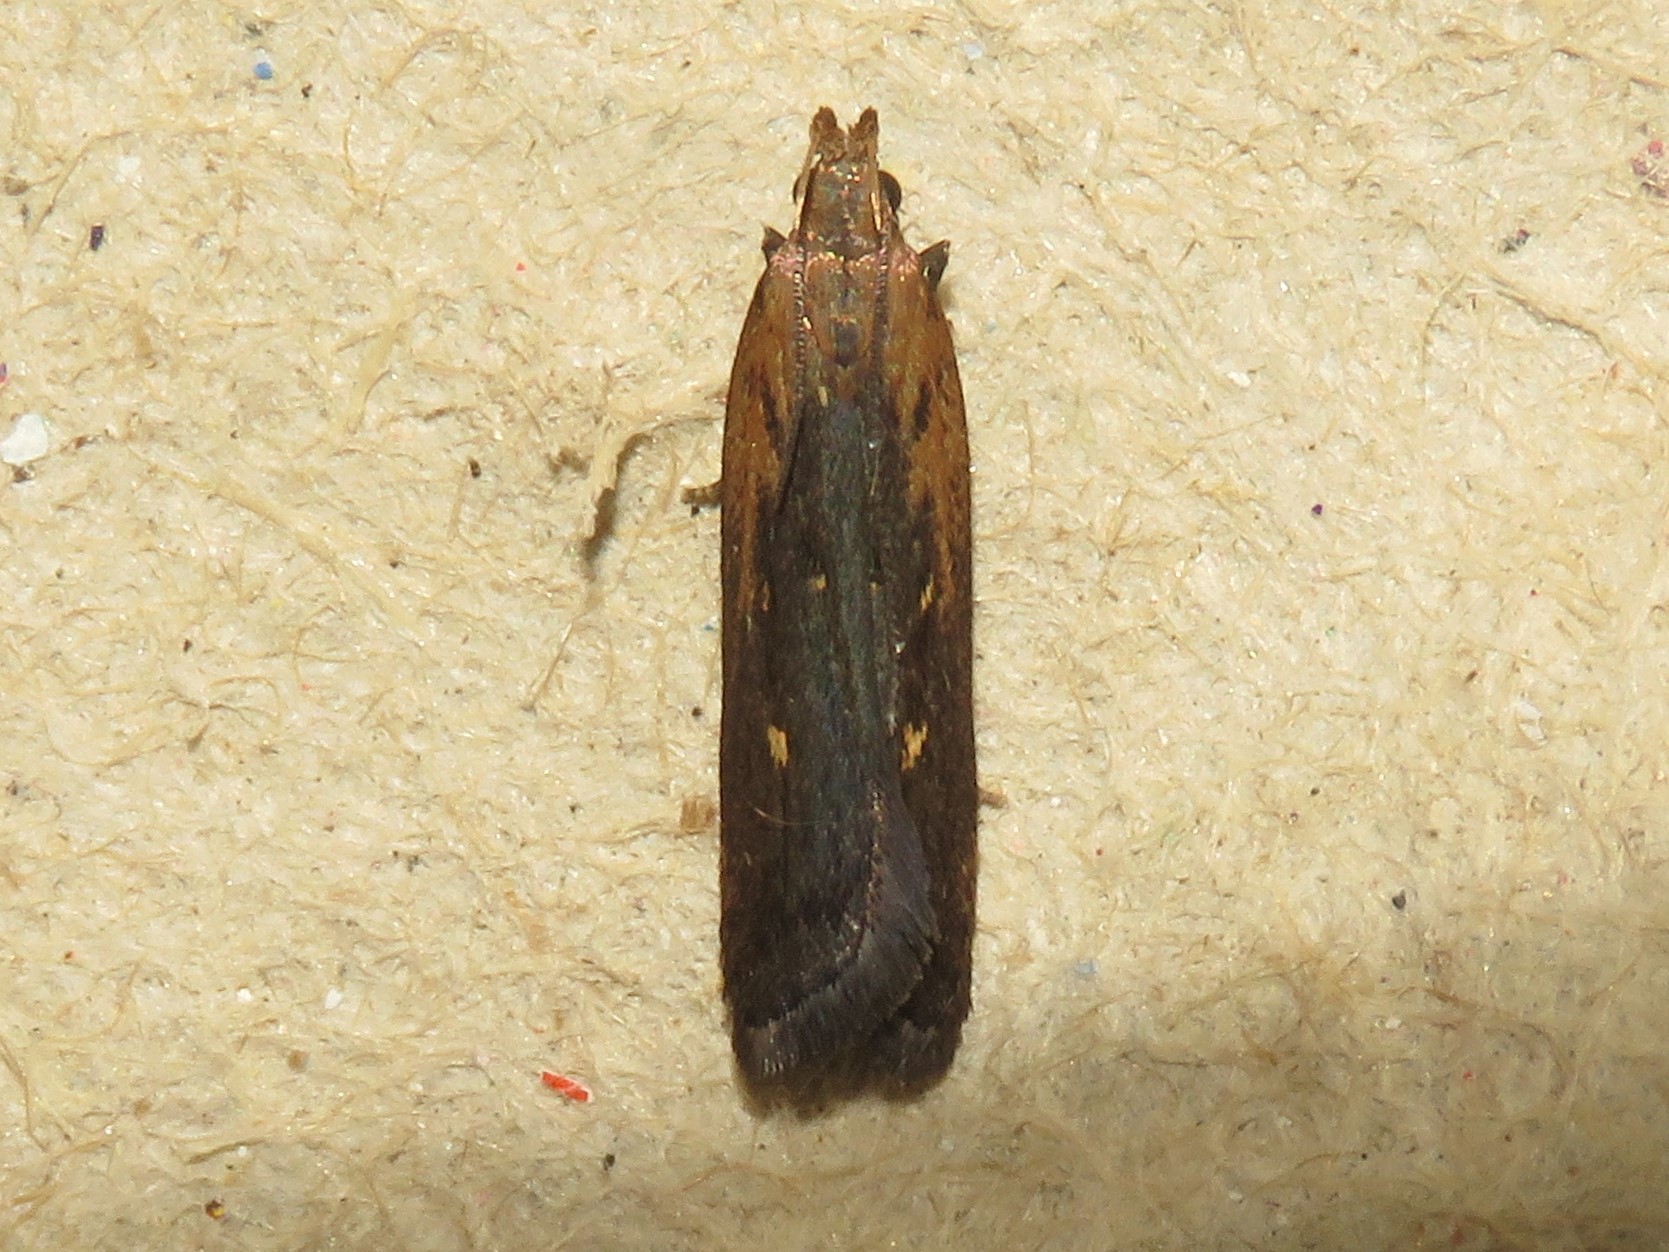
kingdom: Animalia
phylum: Arthropoda
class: Insecta
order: Lepidoptera
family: Gelechiidae
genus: Dichomeris
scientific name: Dichomeris copa
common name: Copa dichomeris moth
